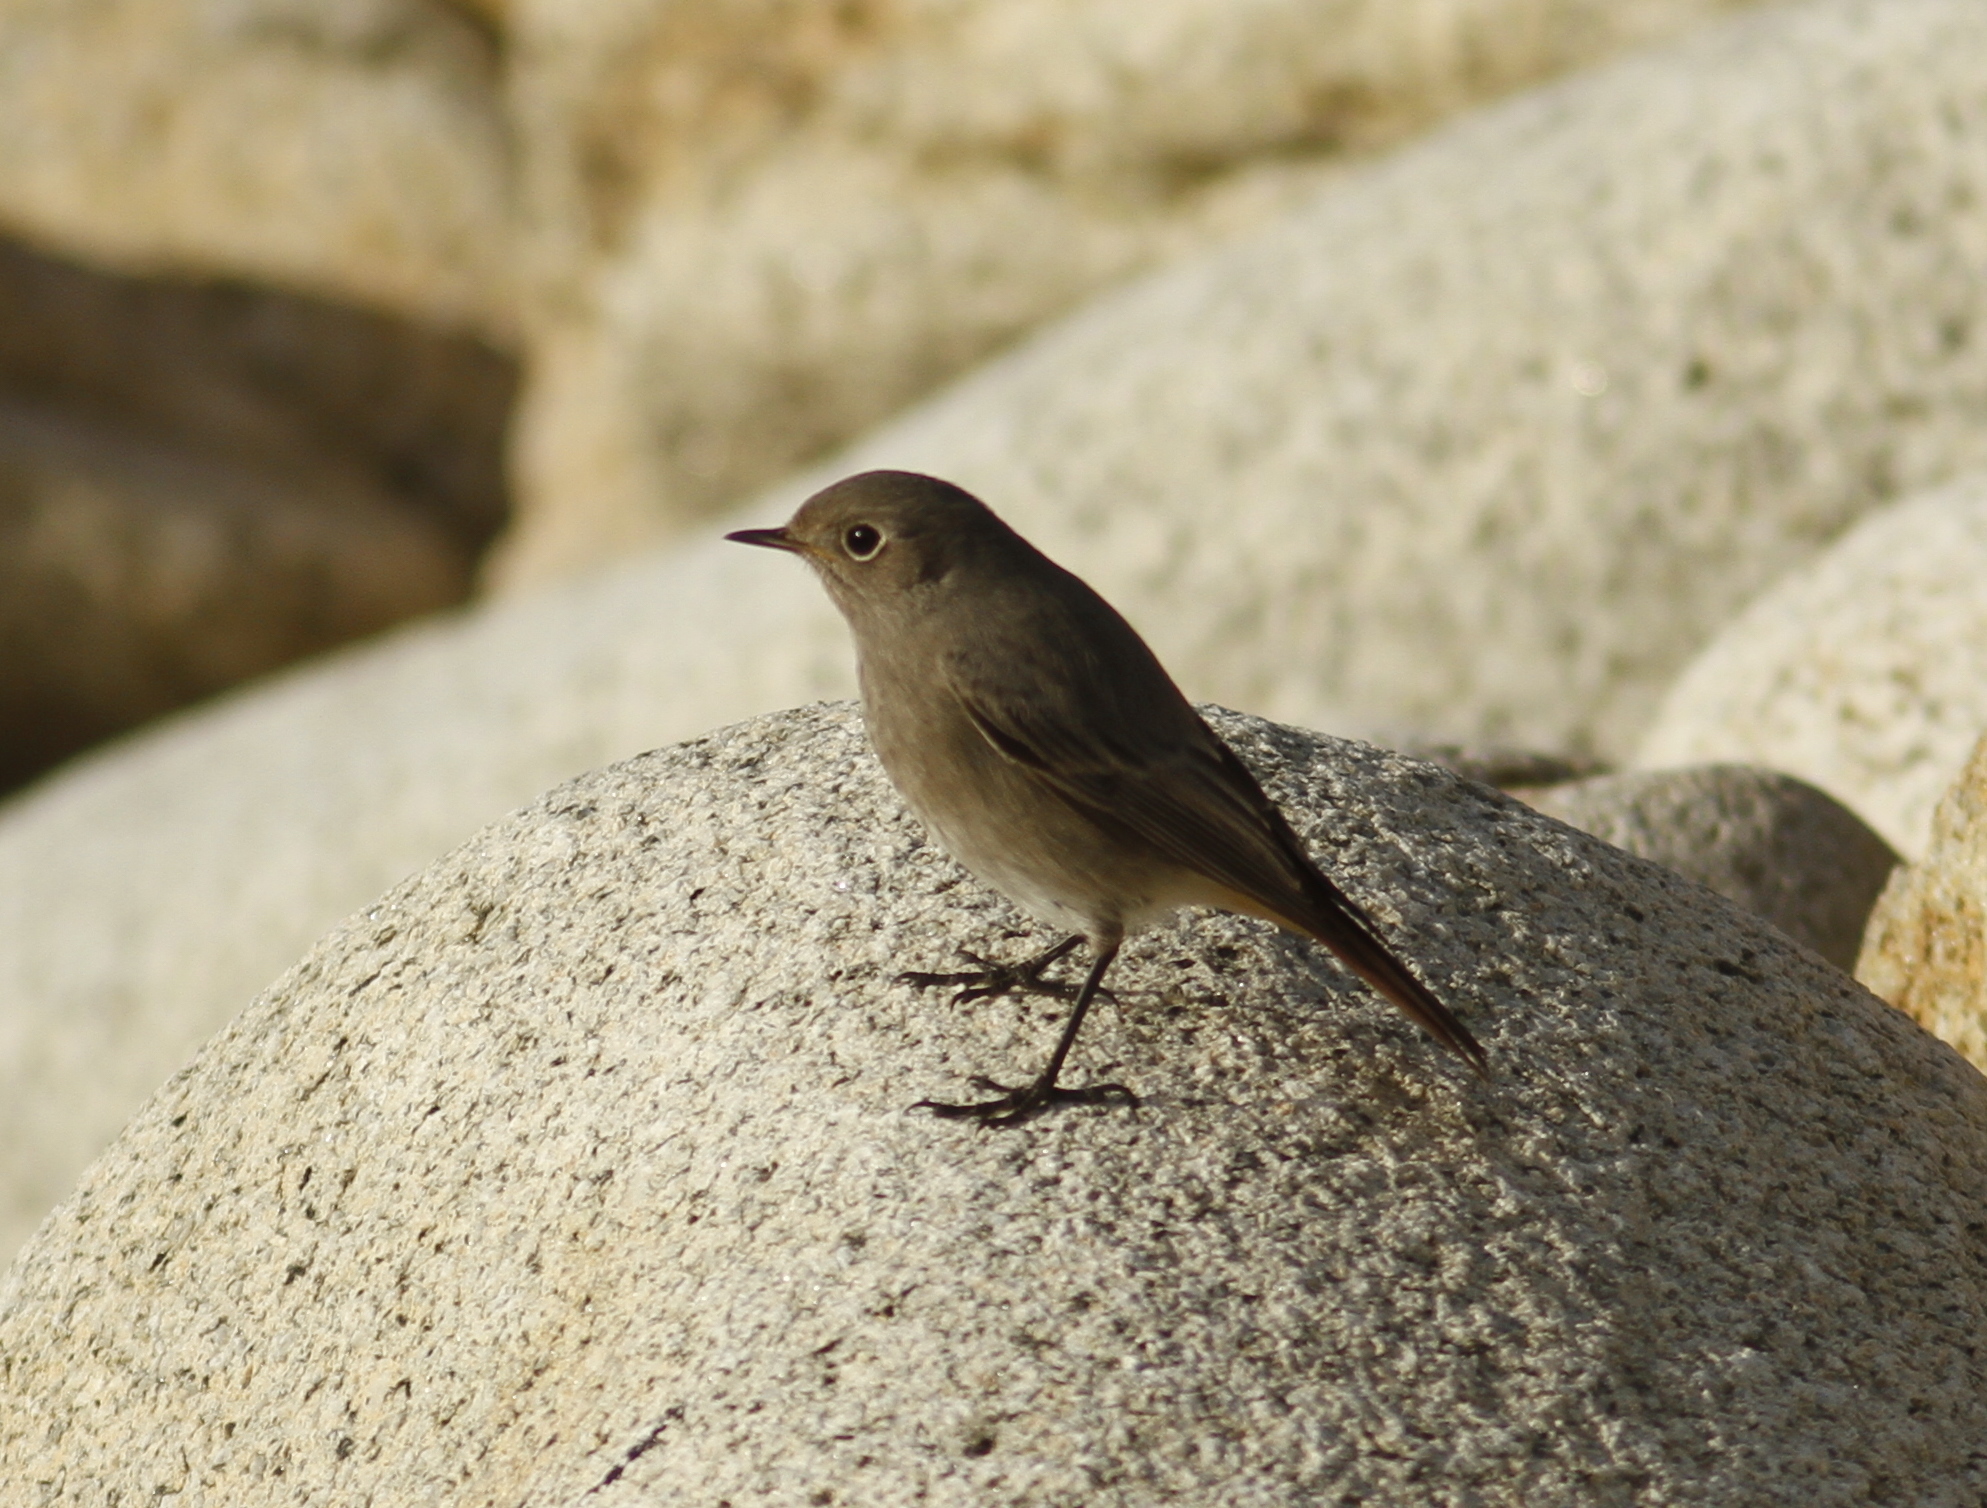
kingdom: Animalia
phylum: Chordata
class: Aves
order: Passeriformes
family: Muscicapidae
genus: Phoenicurus
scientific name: Phoenicurus ochruros
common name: Black redstart
